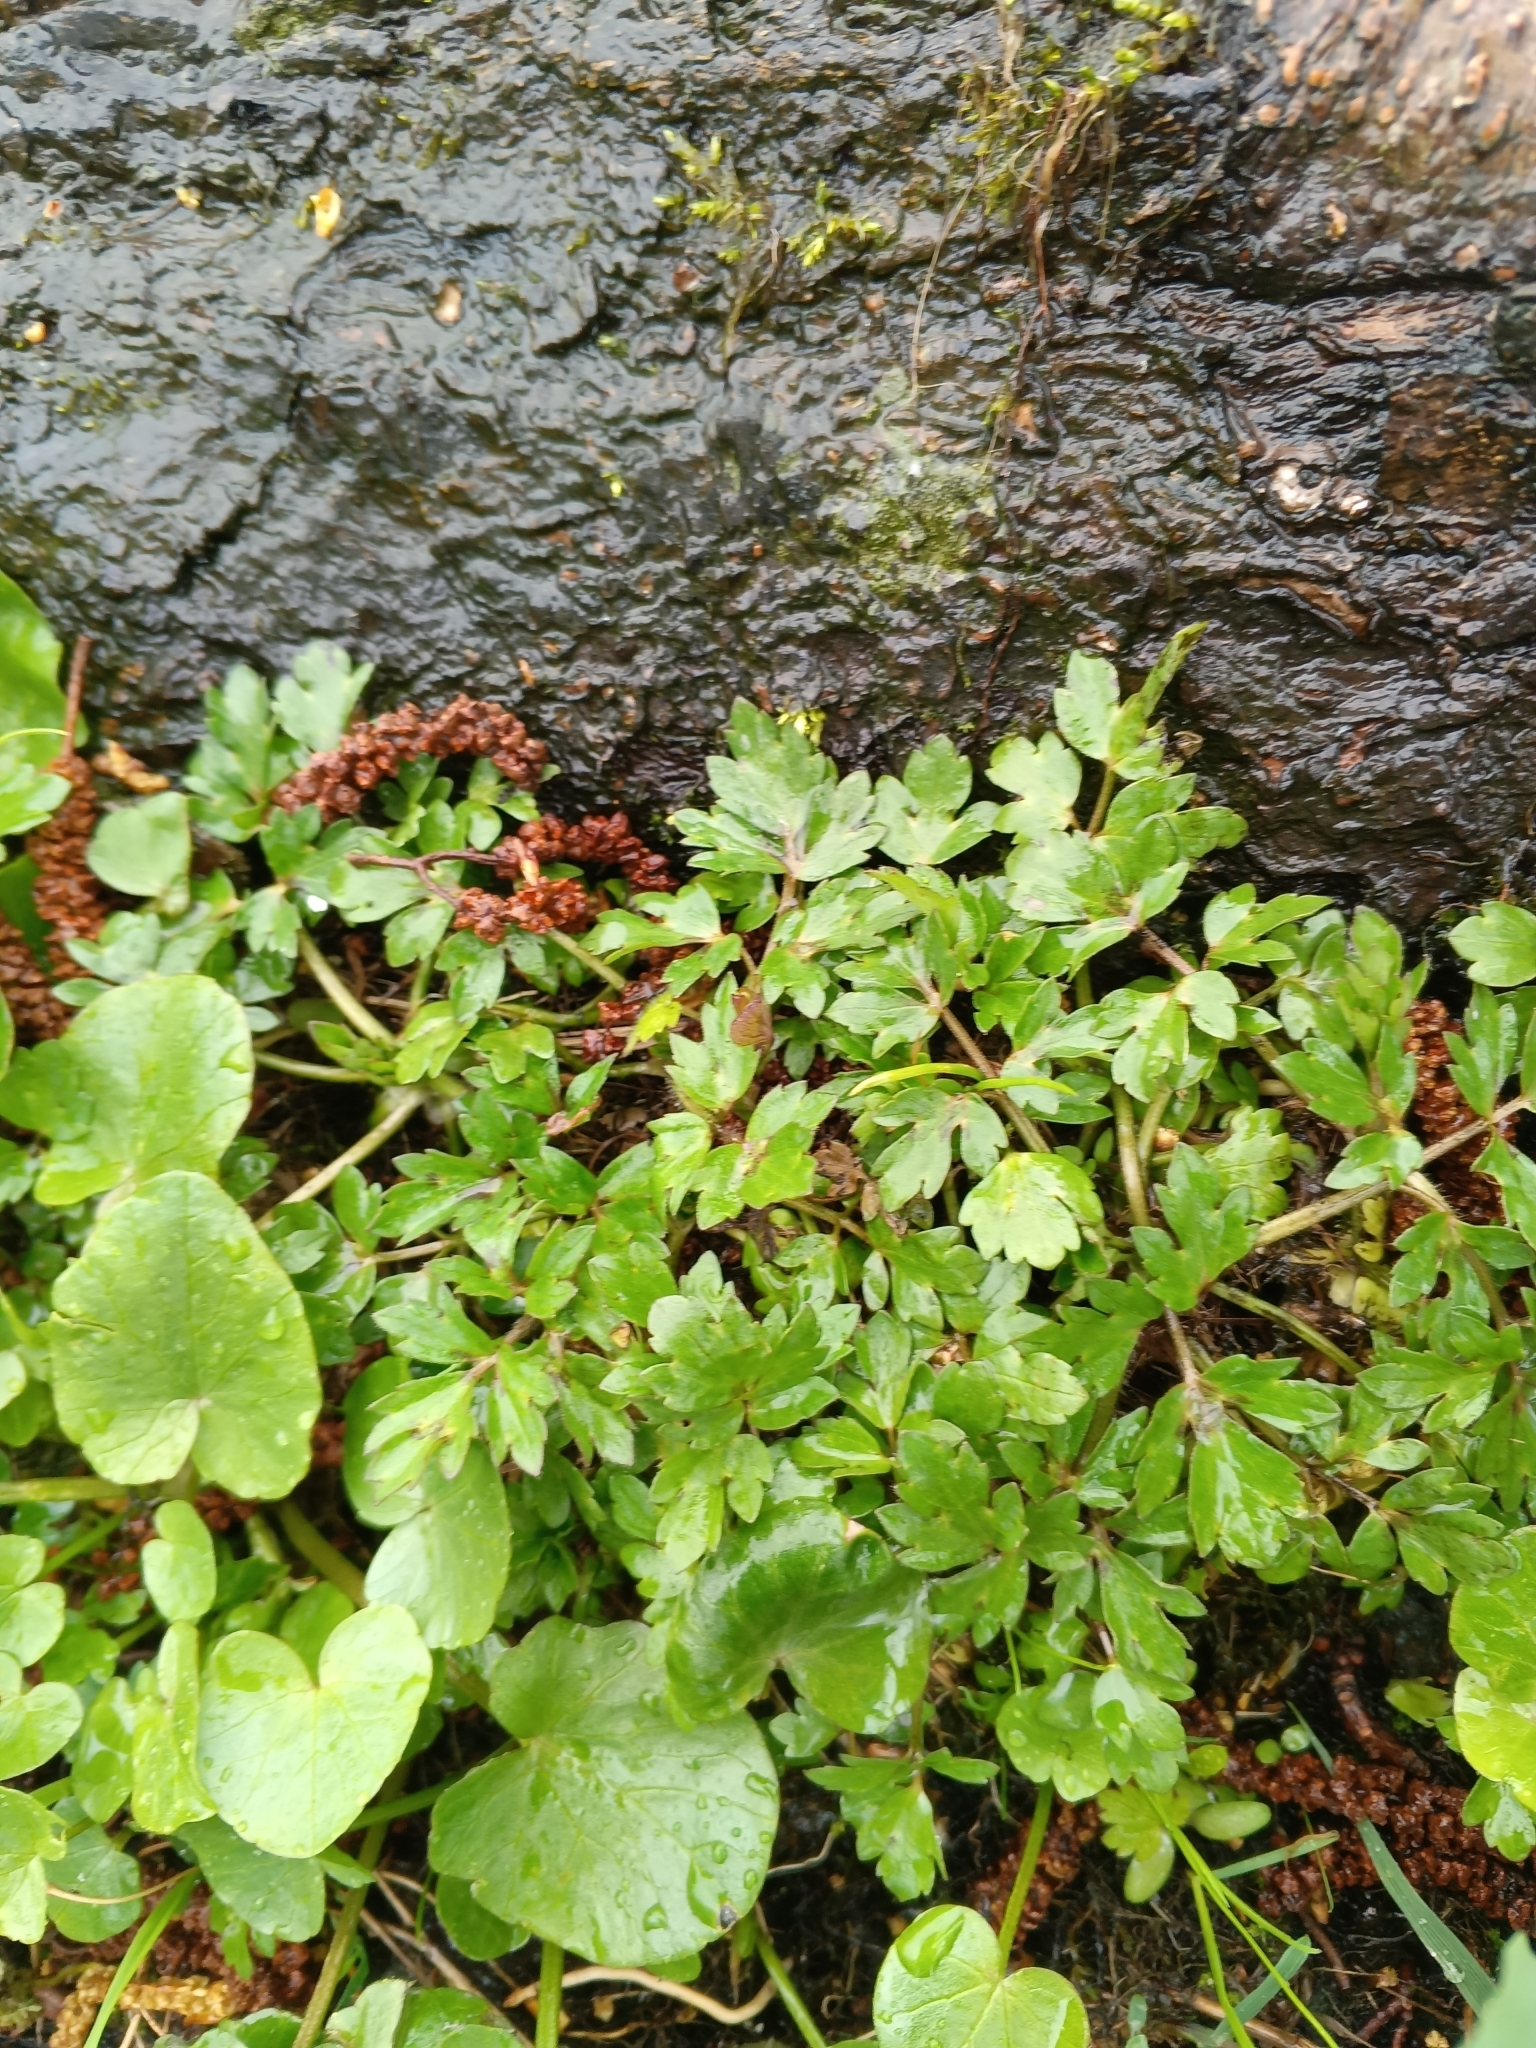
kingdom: Plantae
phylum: Tracheophyta
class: Magnoliopsida
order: Ranunculales
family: Ranunculaceae
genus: Ranunculus
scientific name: Ranunculus repens
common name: Creeping buttercup
